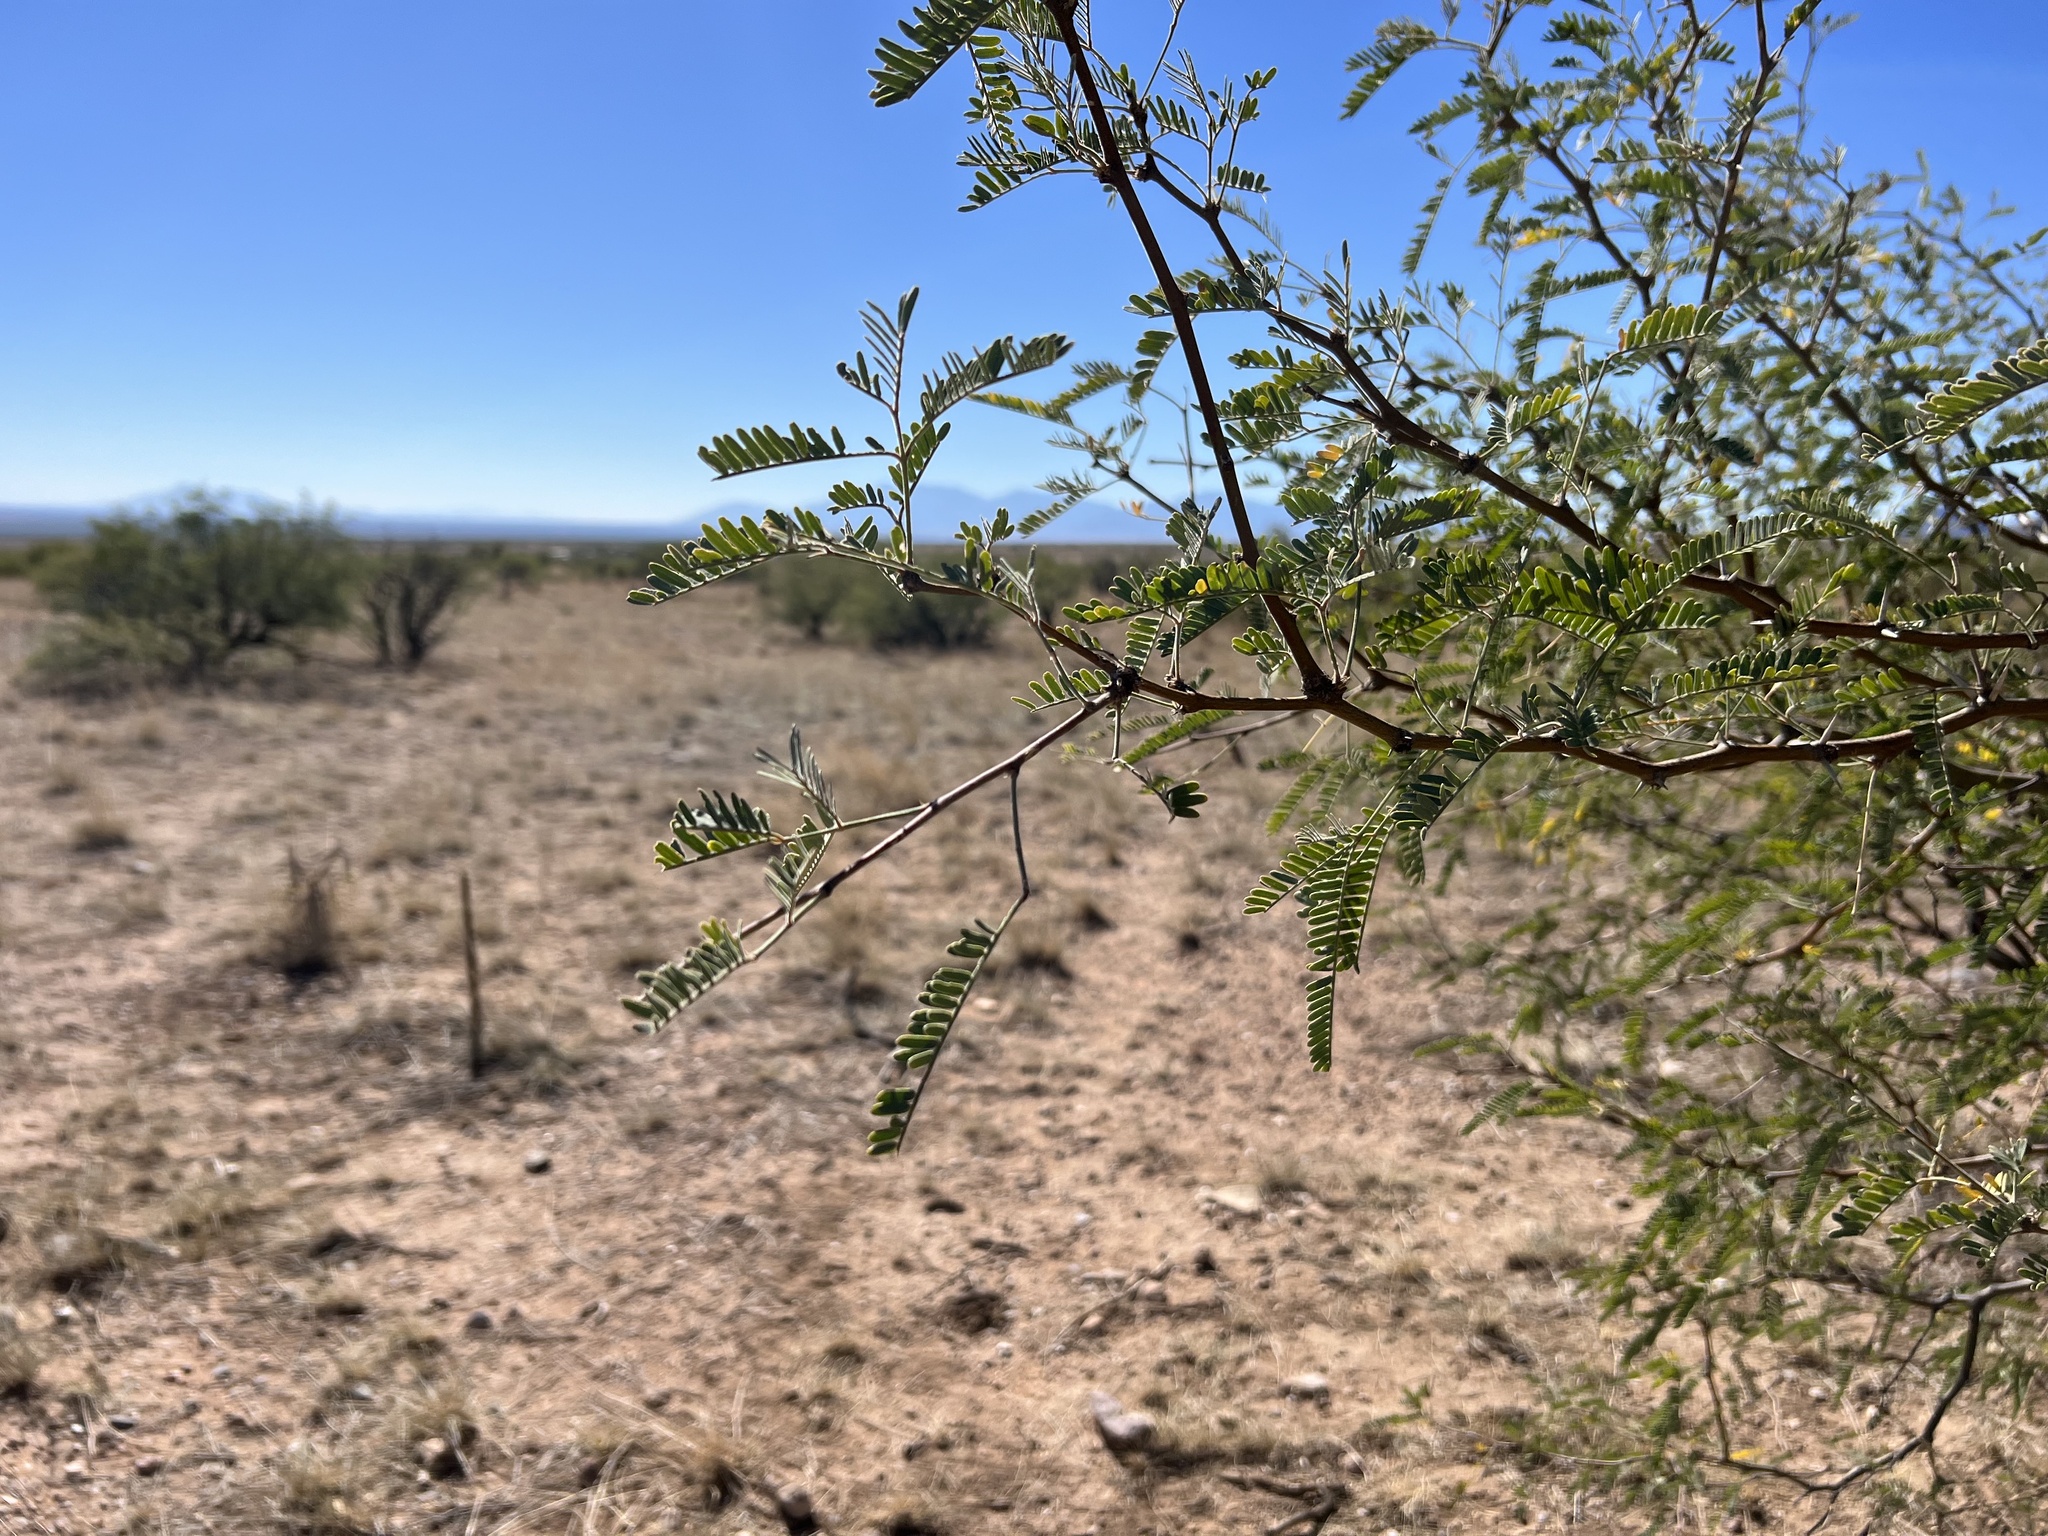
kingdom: Plantae
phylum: Tracheophyta
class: Magnoliopsida
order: Fabales
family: Fabaceae
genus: Prosopis
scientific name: Prosopis velutina
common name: Velvet mesquite
